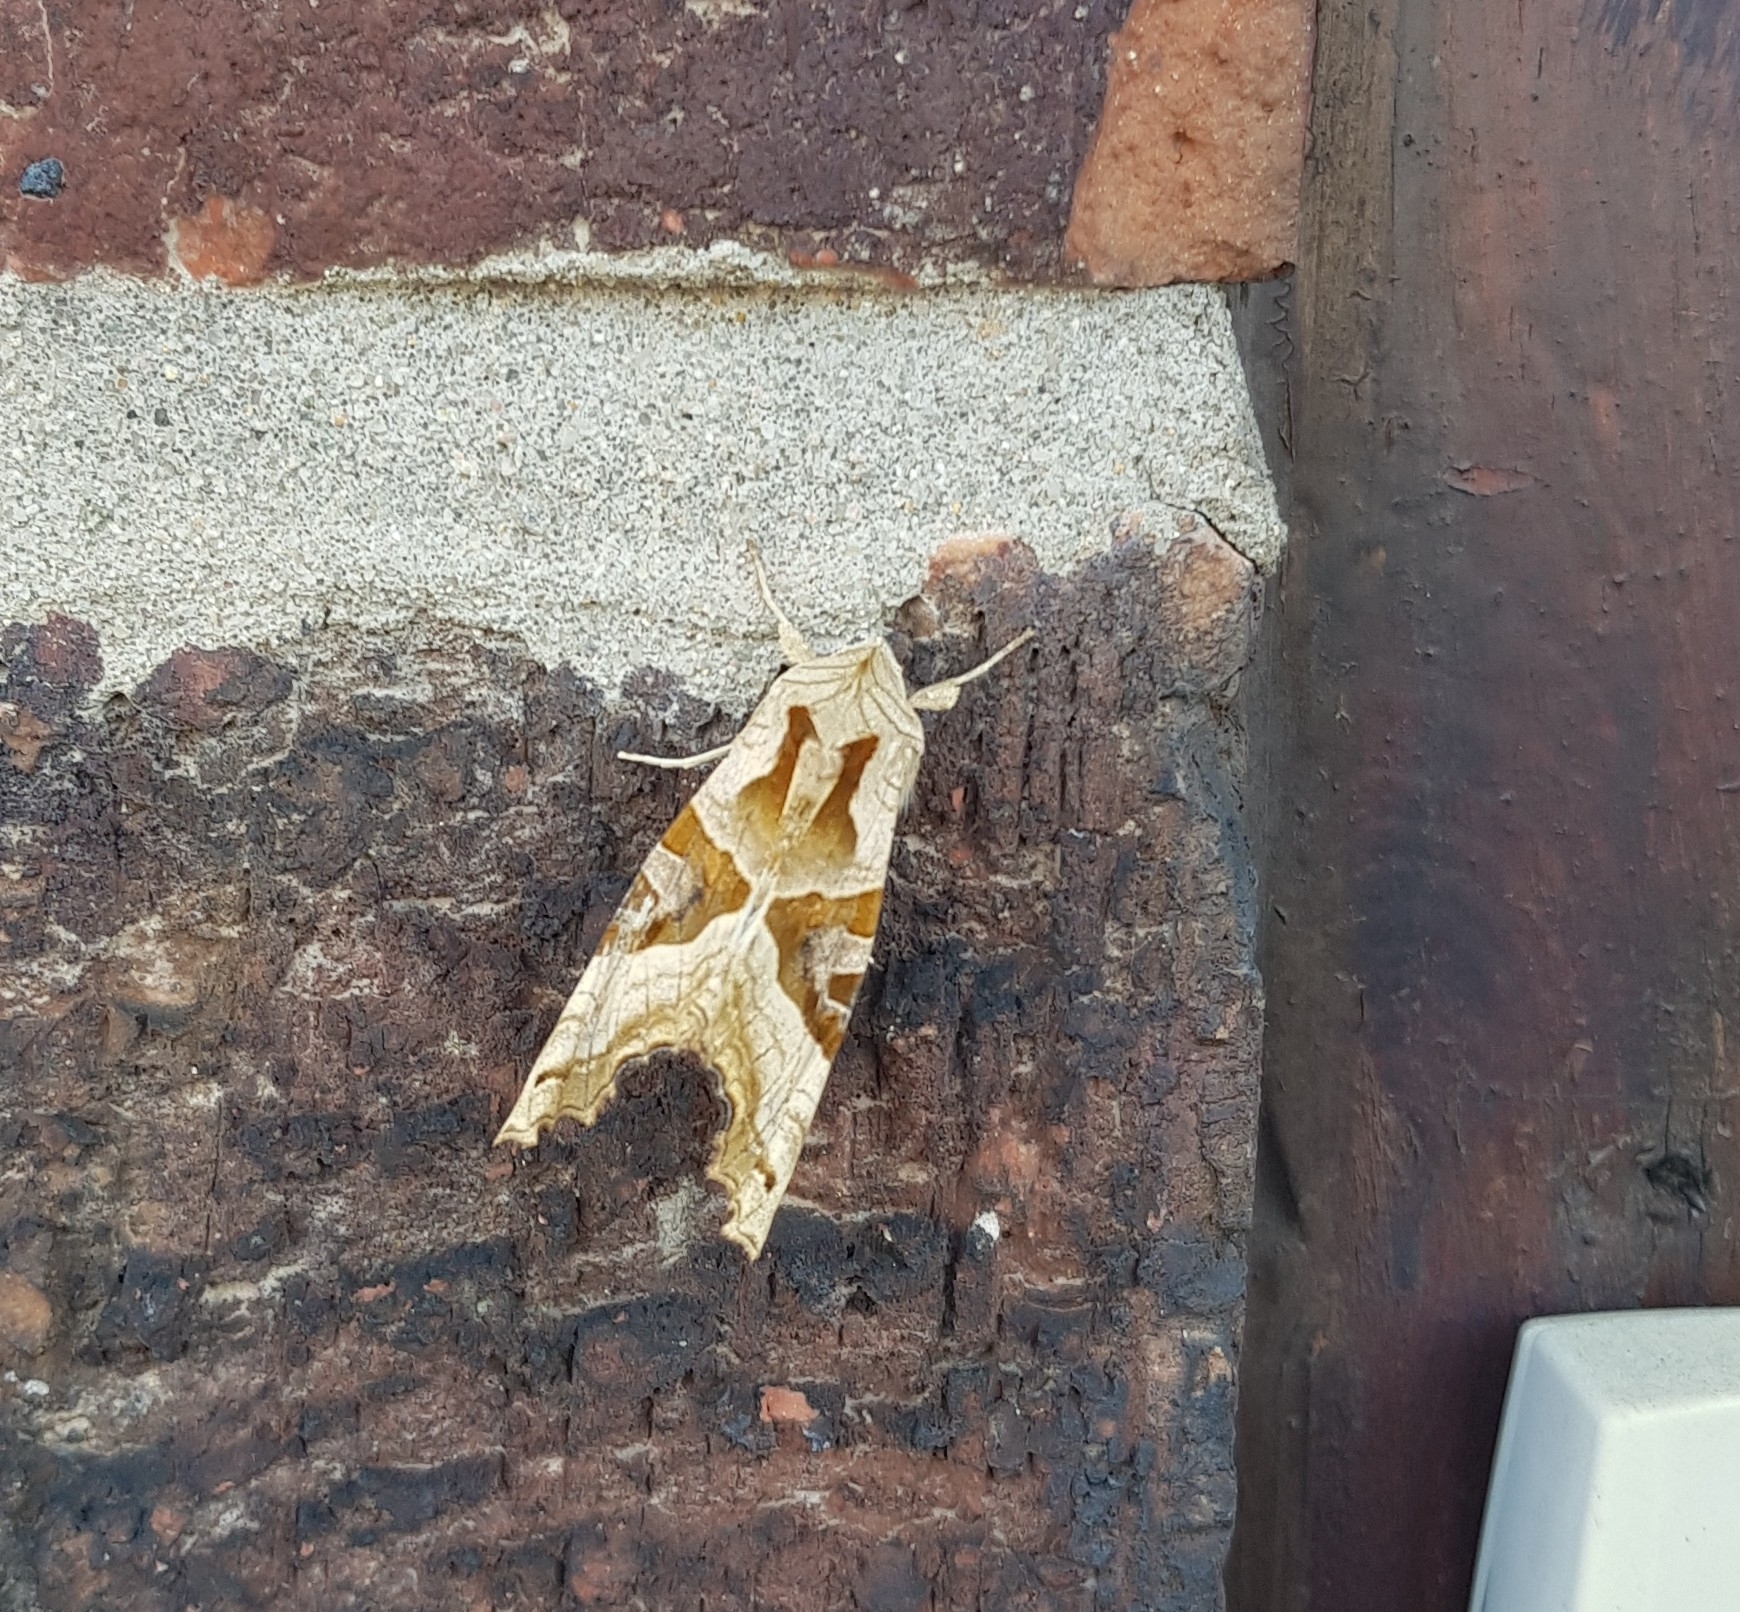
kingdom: Animalia
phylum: Arthropoda
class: Insecta
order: Lepidoptera
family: Noctuidae
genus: Phlogophora
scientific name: Phlogophora meticulosa
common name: Angle shades
